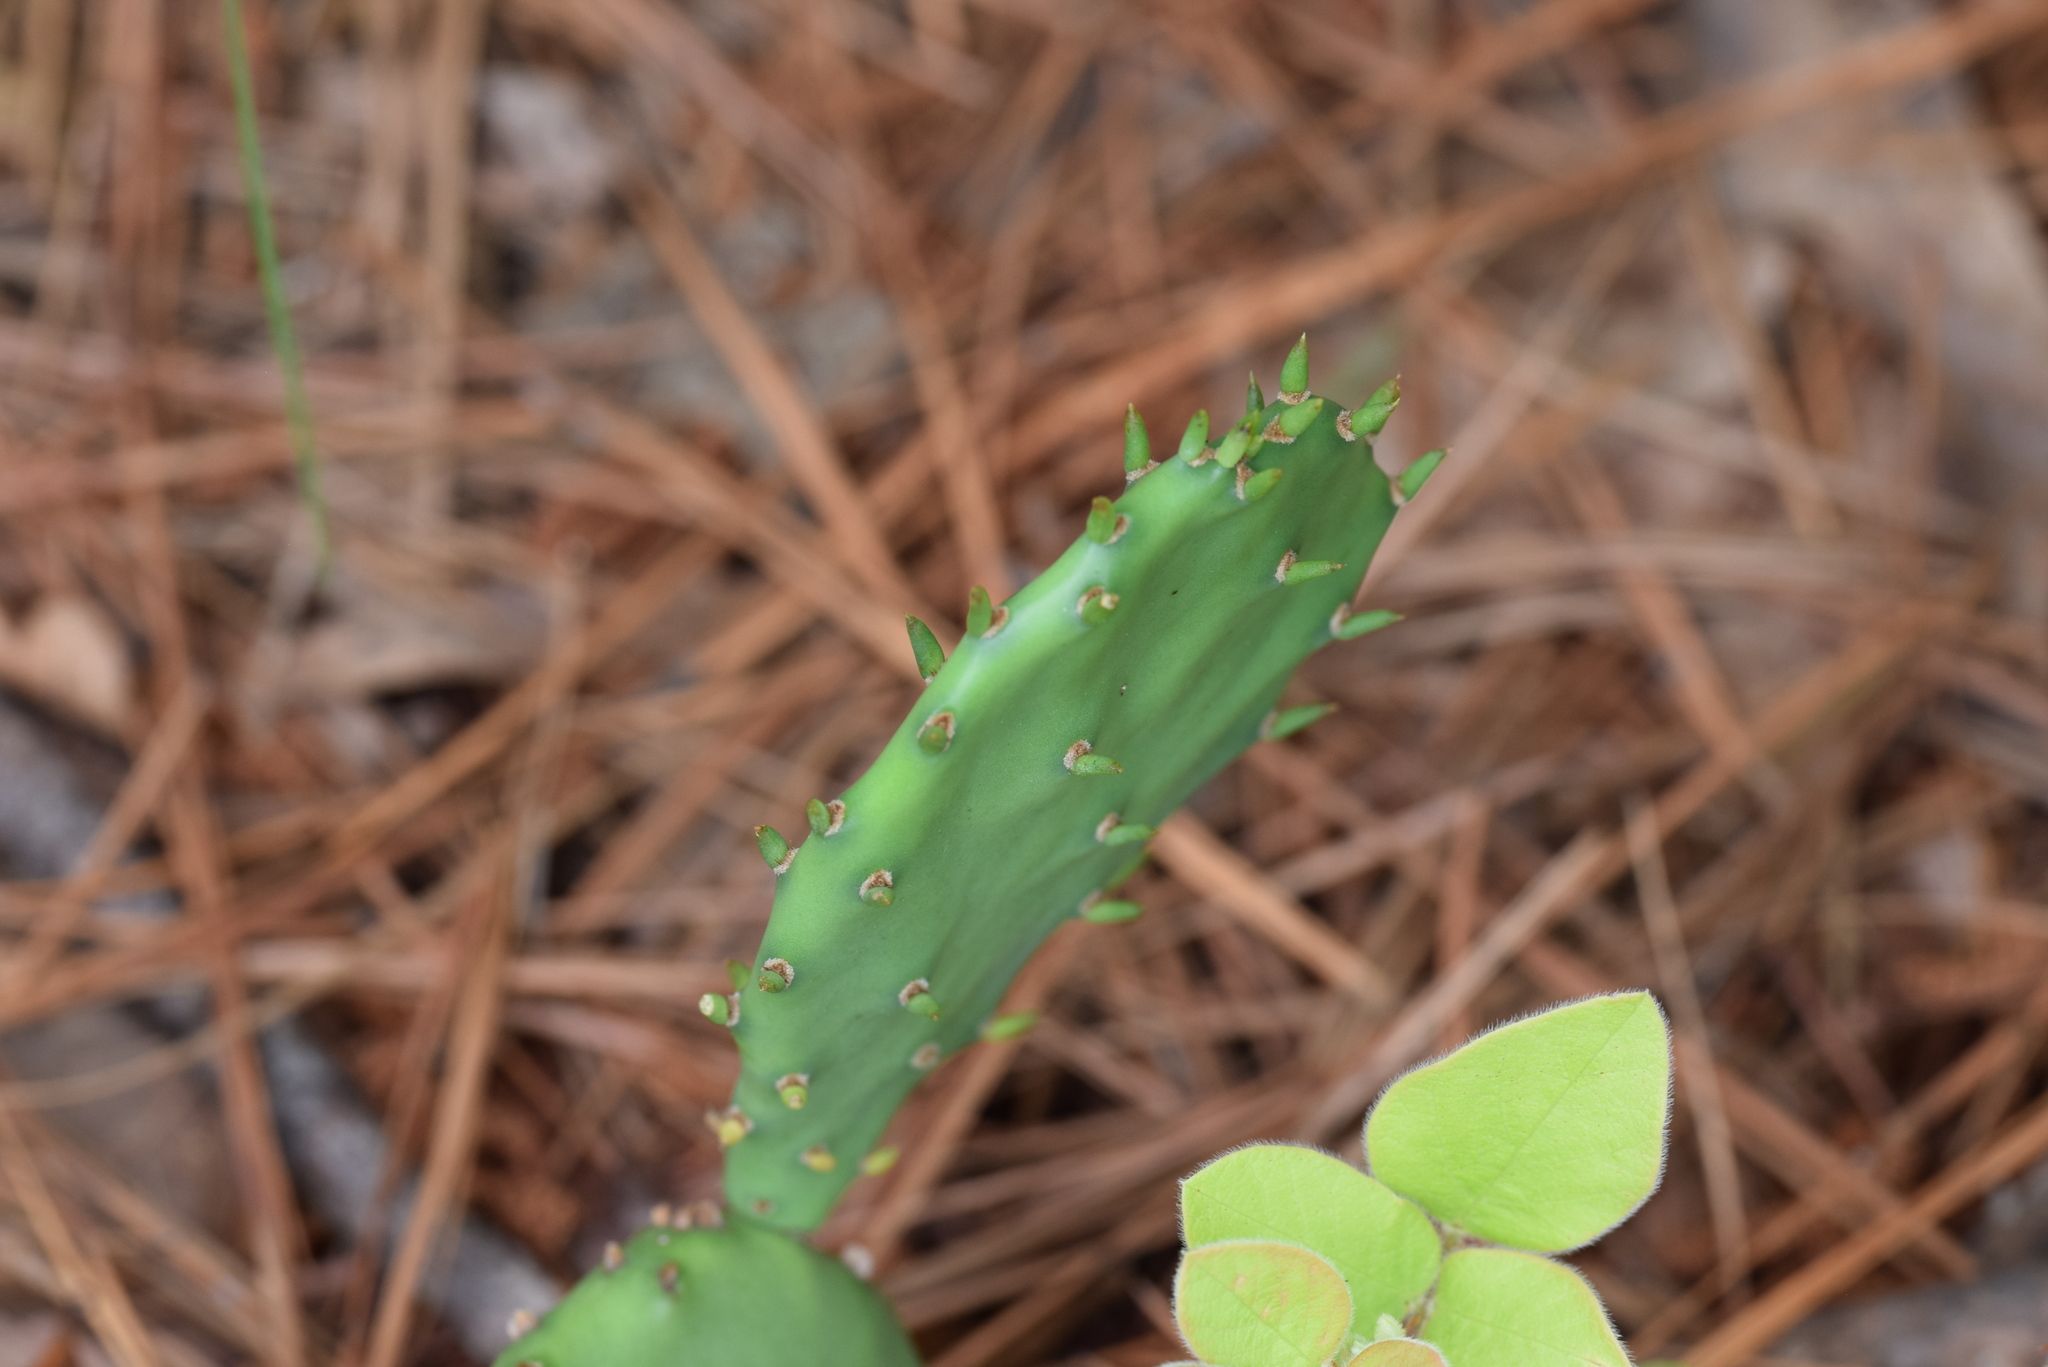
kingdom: Plantae
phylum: Tracheophyta
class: Magnoliopsida
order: Caryophyllales
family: Cactaceae
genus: Opuntia
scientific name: Opuntia macrorhiza
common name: Grassland pricklypear
